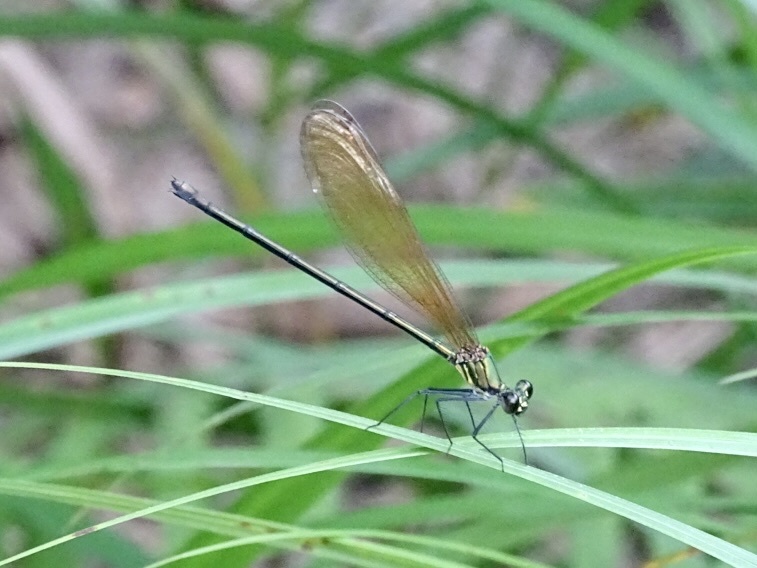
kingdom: Animalia
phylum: Arthropoda
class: Insecta
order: Odonata
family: Calopterygidae
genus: Mnais
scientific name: Mnais mneme
